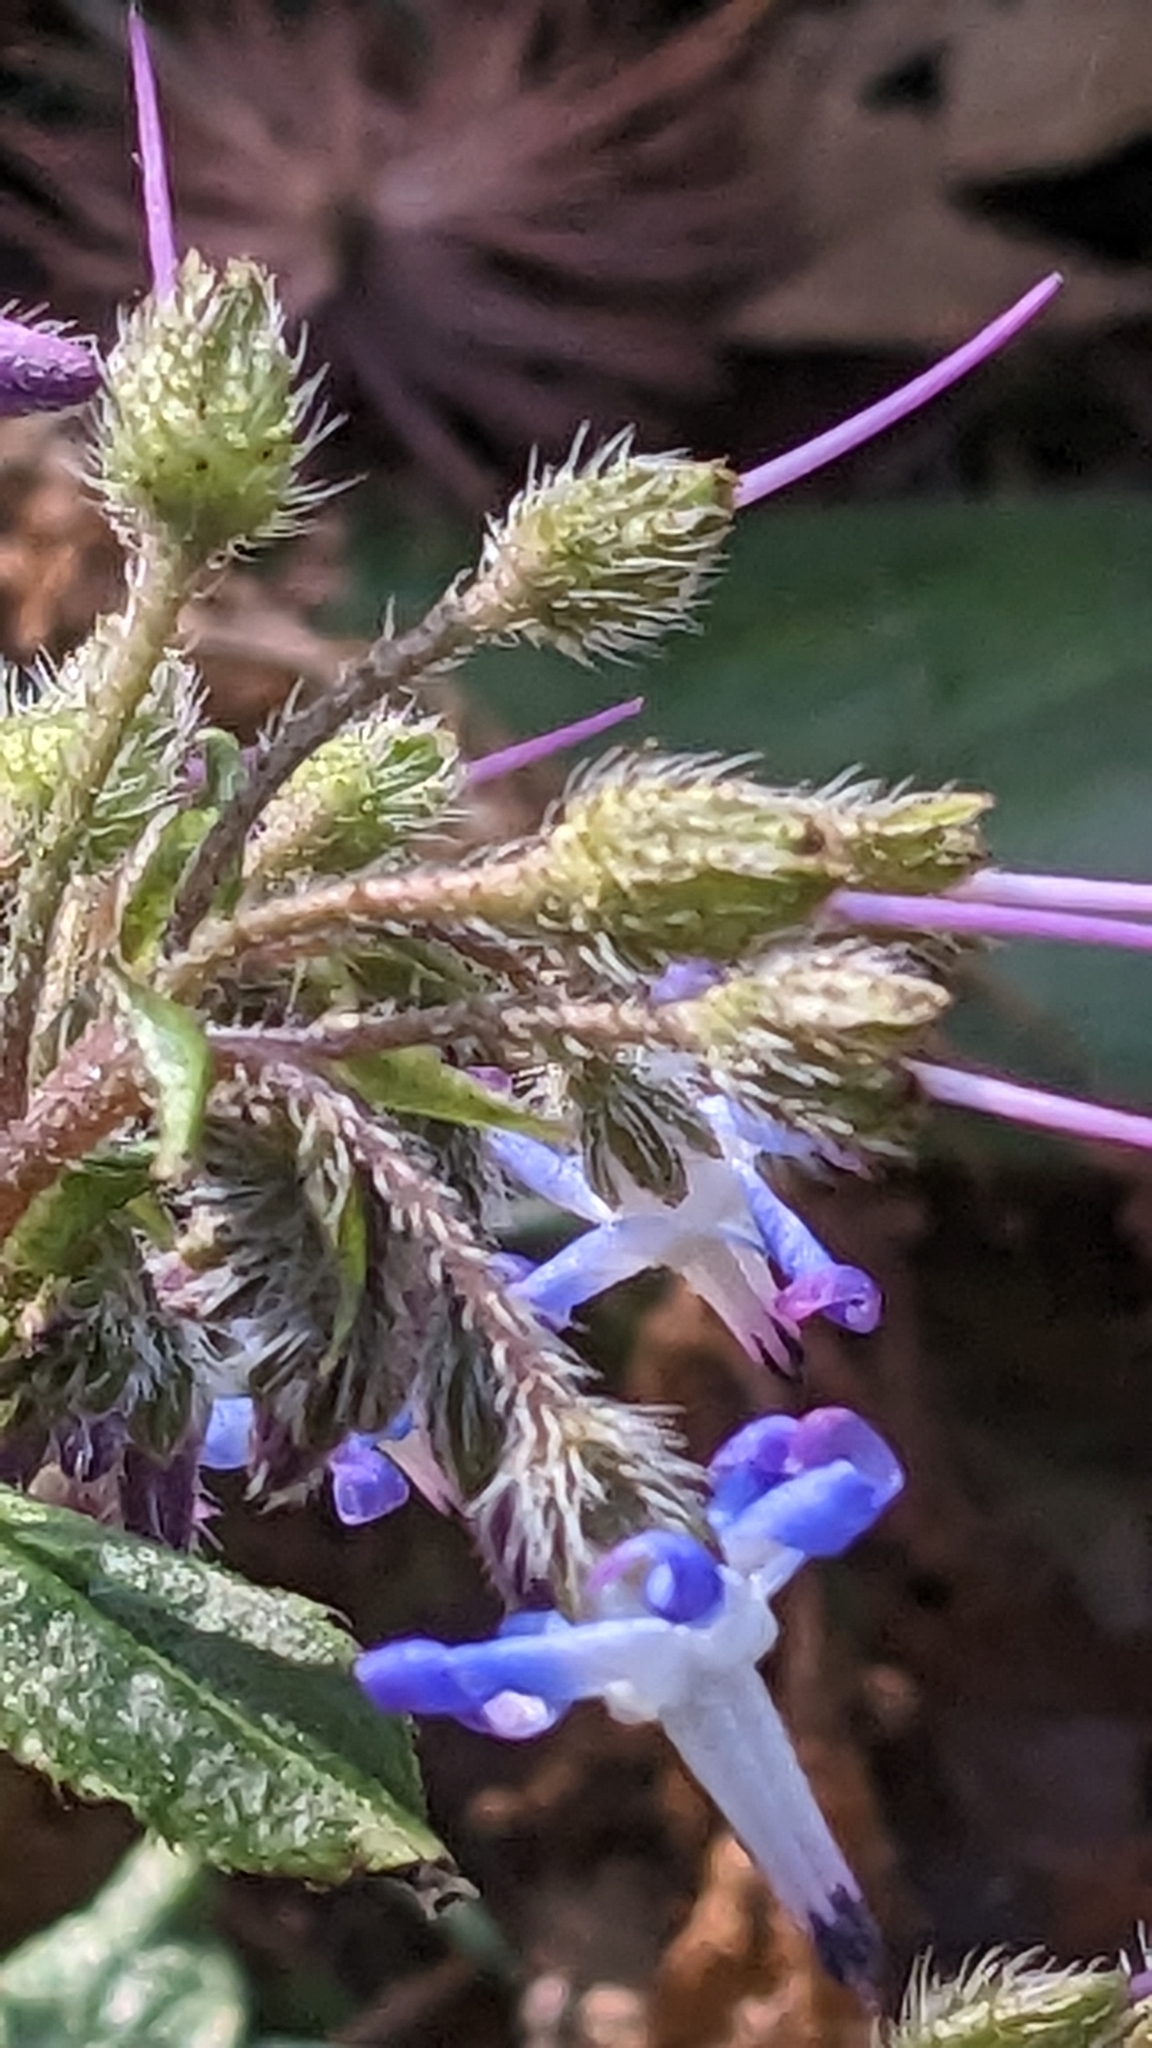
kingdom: Plantae
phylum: Tracheophyta
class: Magnoliopsida
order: Boraginales
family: Boraginaceae
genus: Trachystemon
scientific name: Trachystemon orientale
